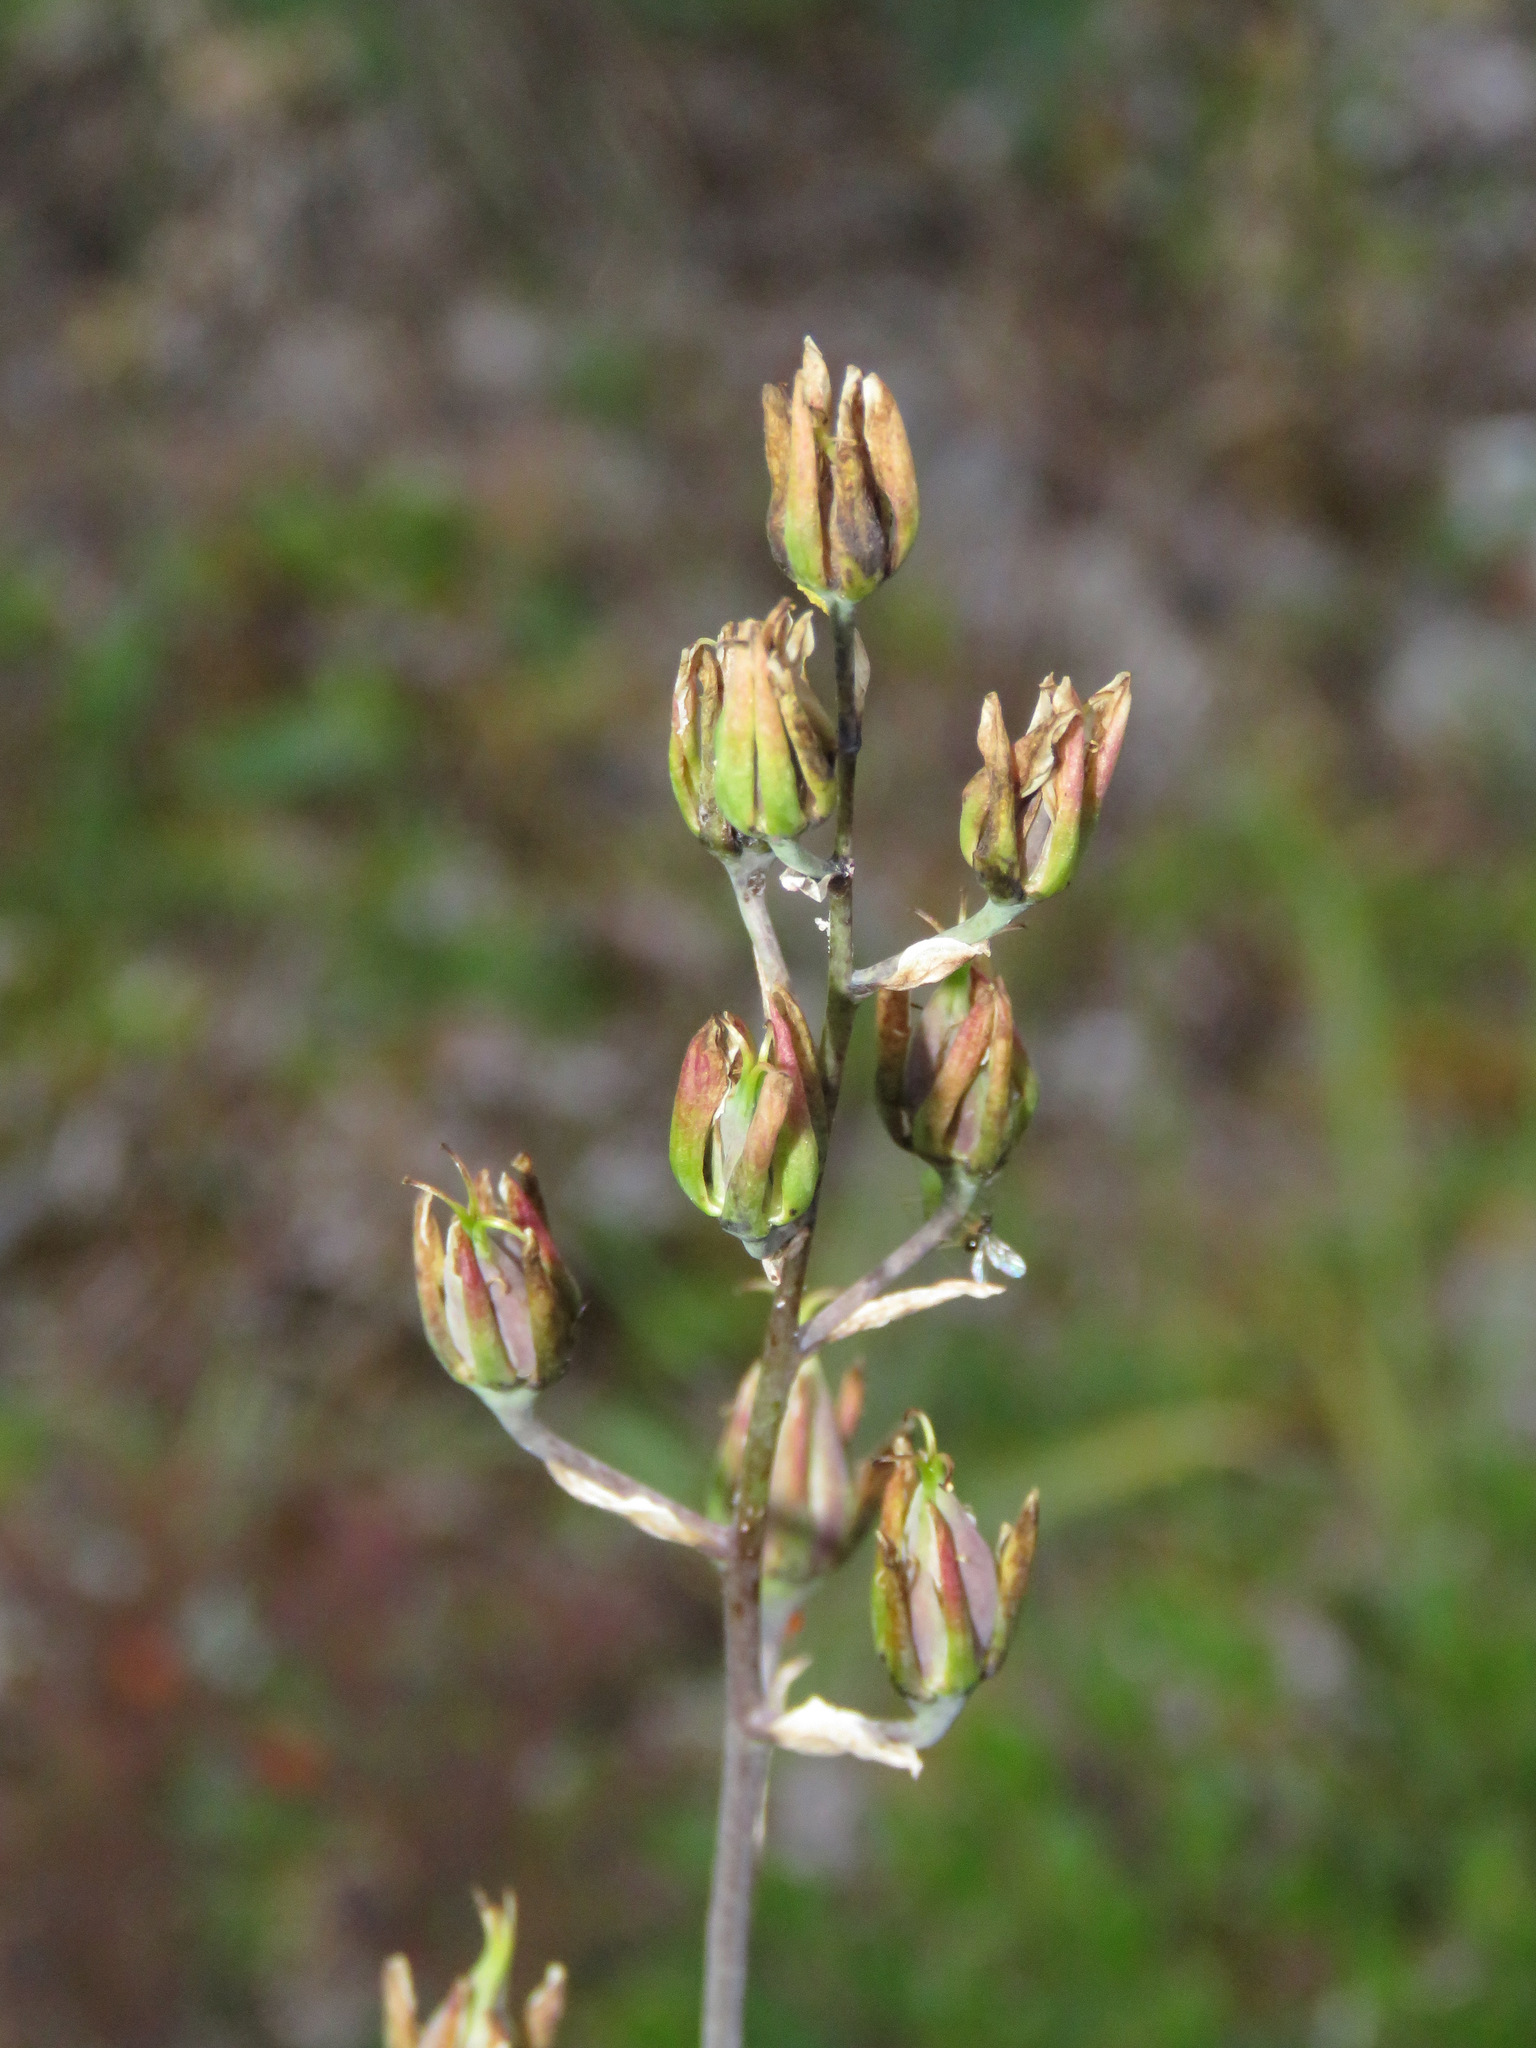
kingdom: Plantae
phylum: Tracheophyta
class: Liliopsida
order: Liliales
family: Melanthiaceae
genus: Anticlea
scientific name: Anticlea elegans
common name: Mountain death camas
